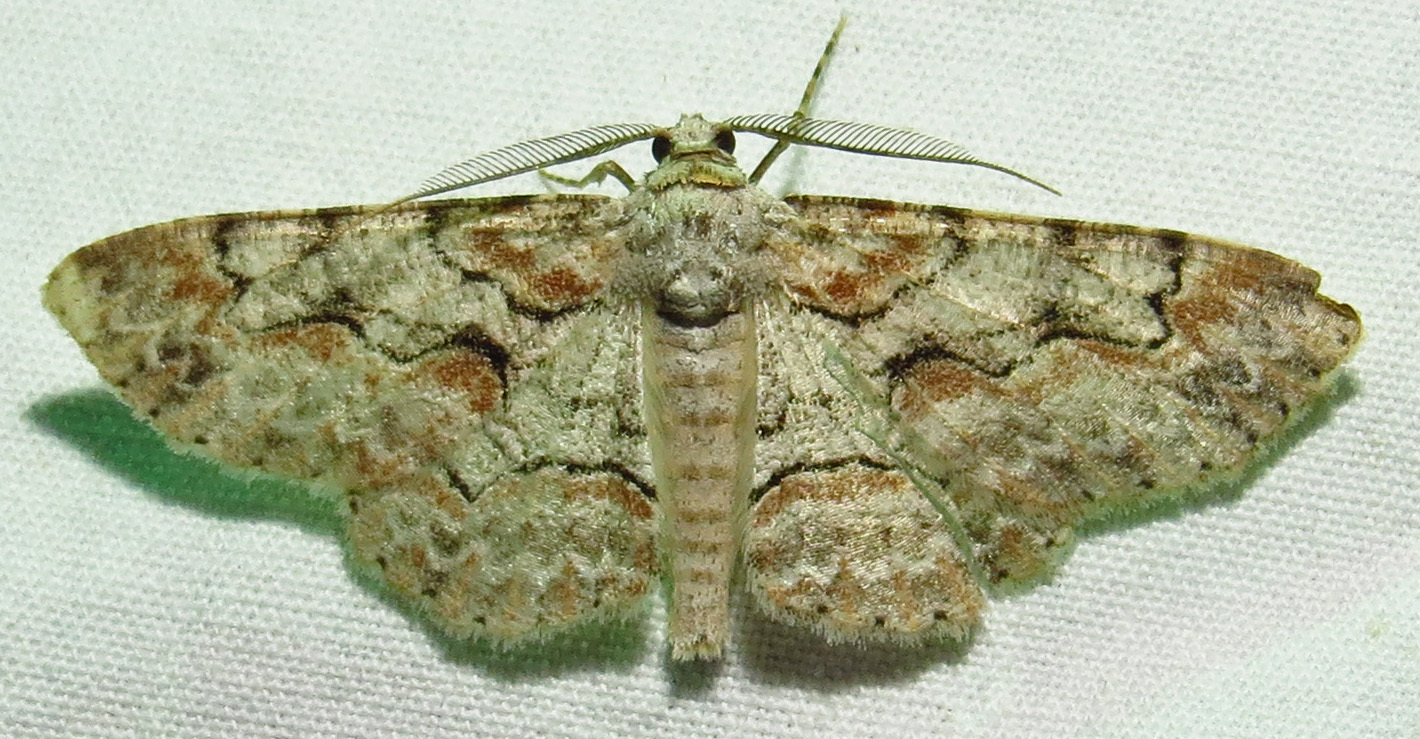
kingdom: Animalia
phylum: Arthropoda
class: Insecta
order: Lepidoptera
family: Geometridae
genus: Iridopsis
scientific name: Iridopsis defectaria
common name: Brown-shaded gray
